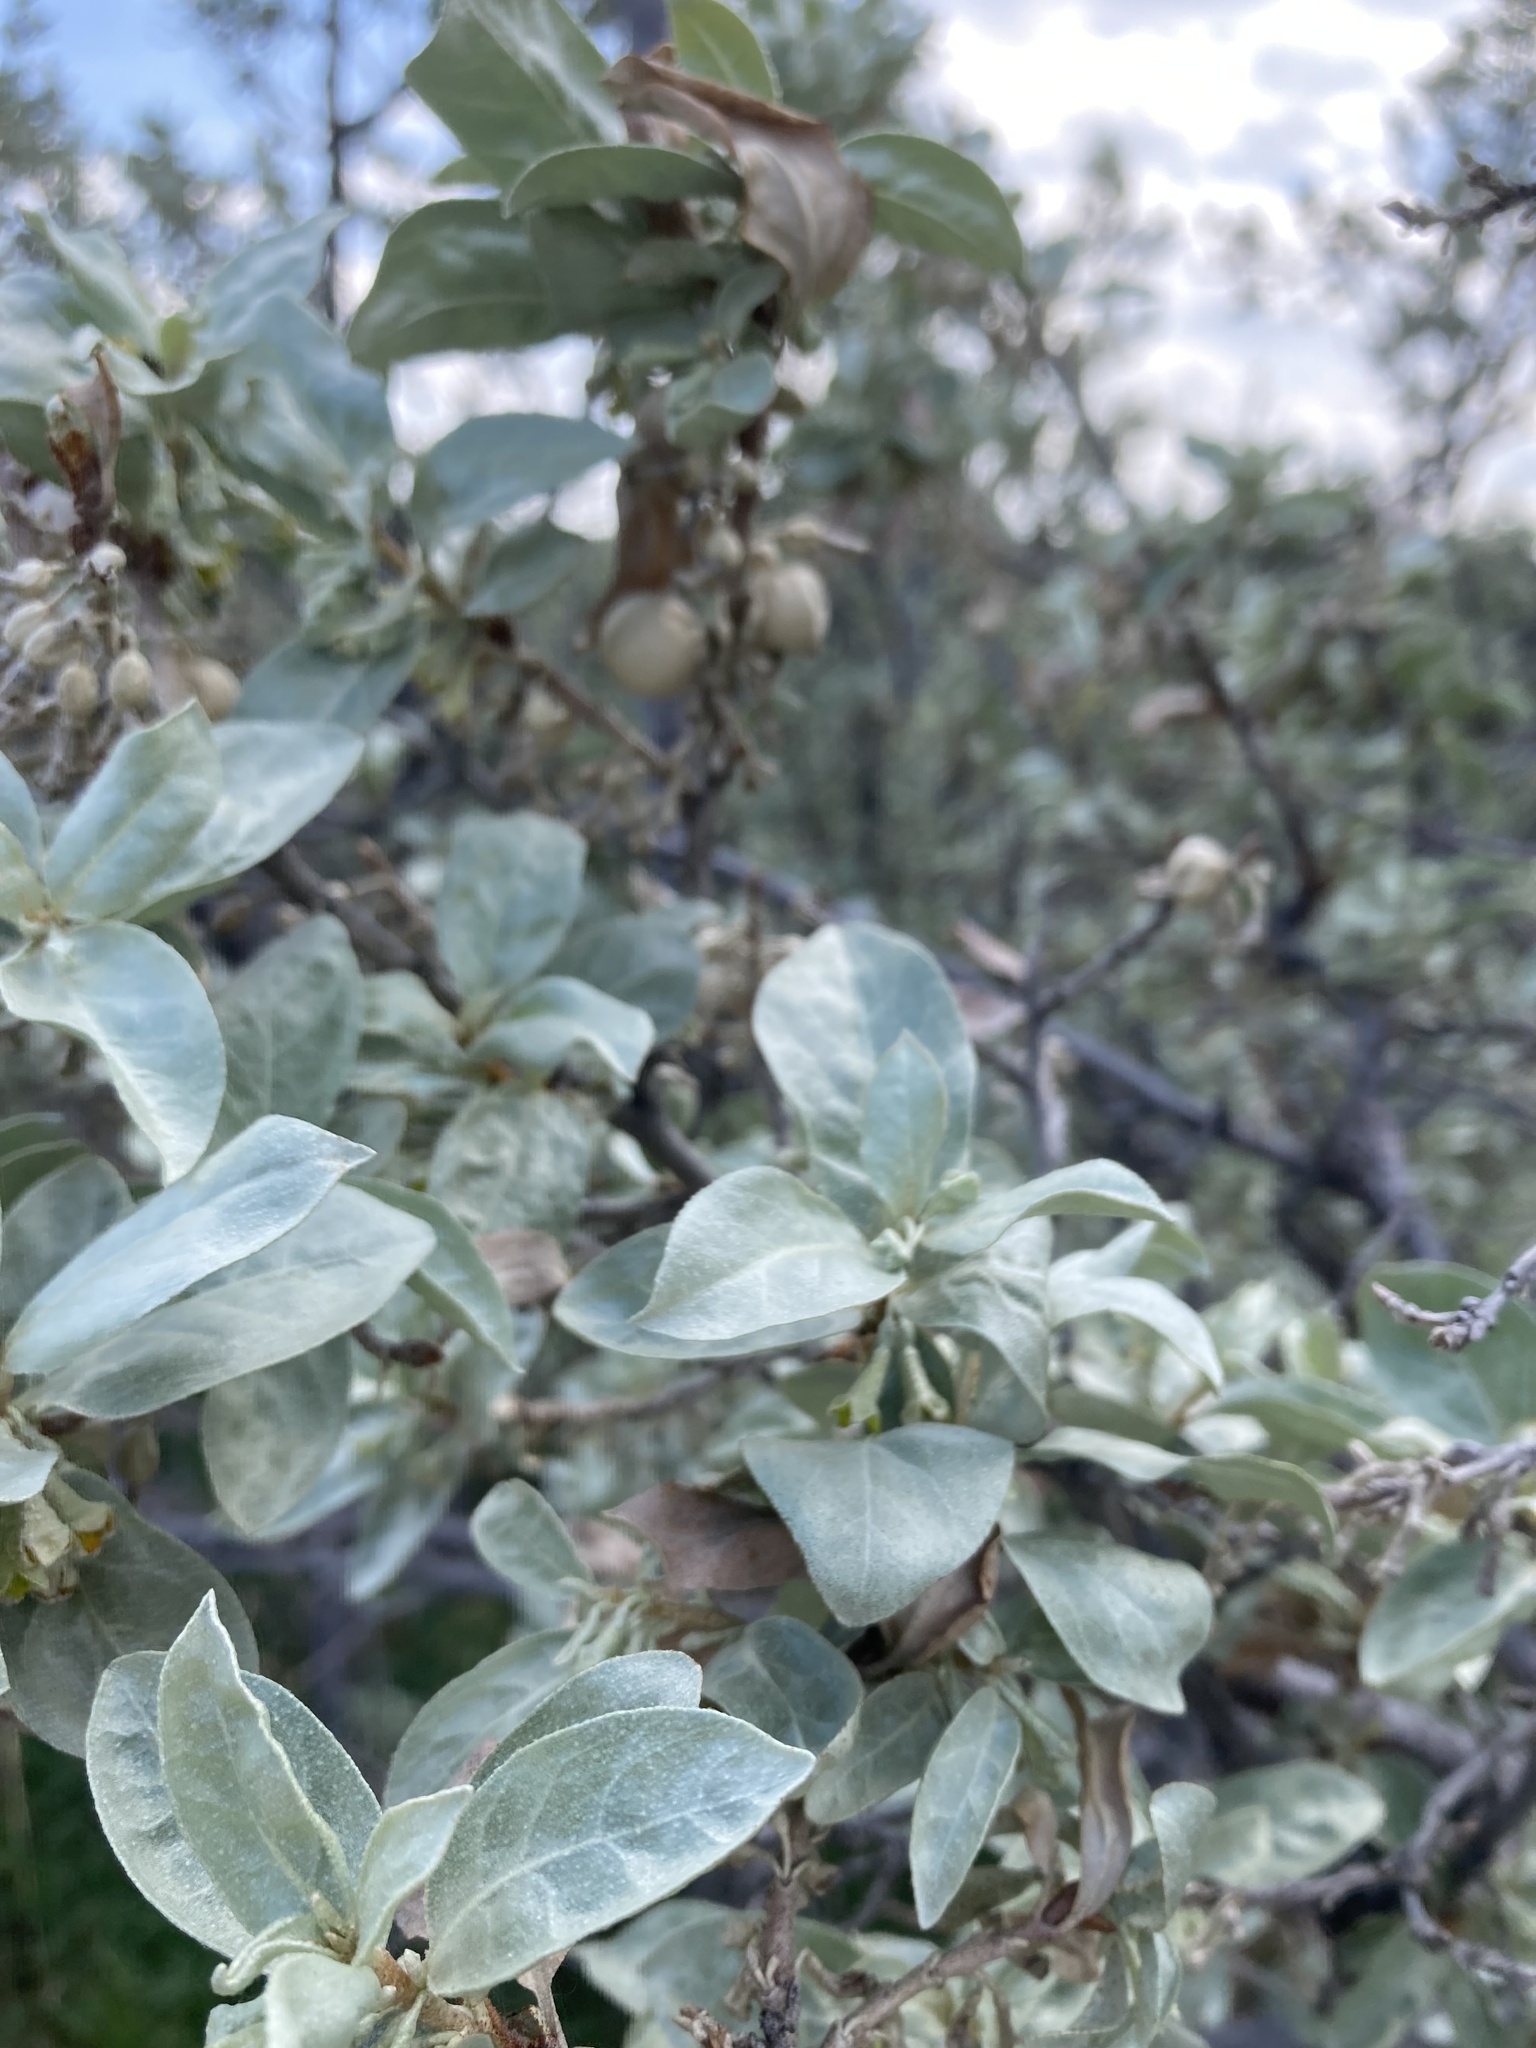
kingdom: Plantae
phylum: Tracheophyta
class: Magnoliopsida
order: Rosales
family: Elaeagnaceae
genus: Elaeagnus
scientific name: Elaeagnus commutata
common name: Silverberry
